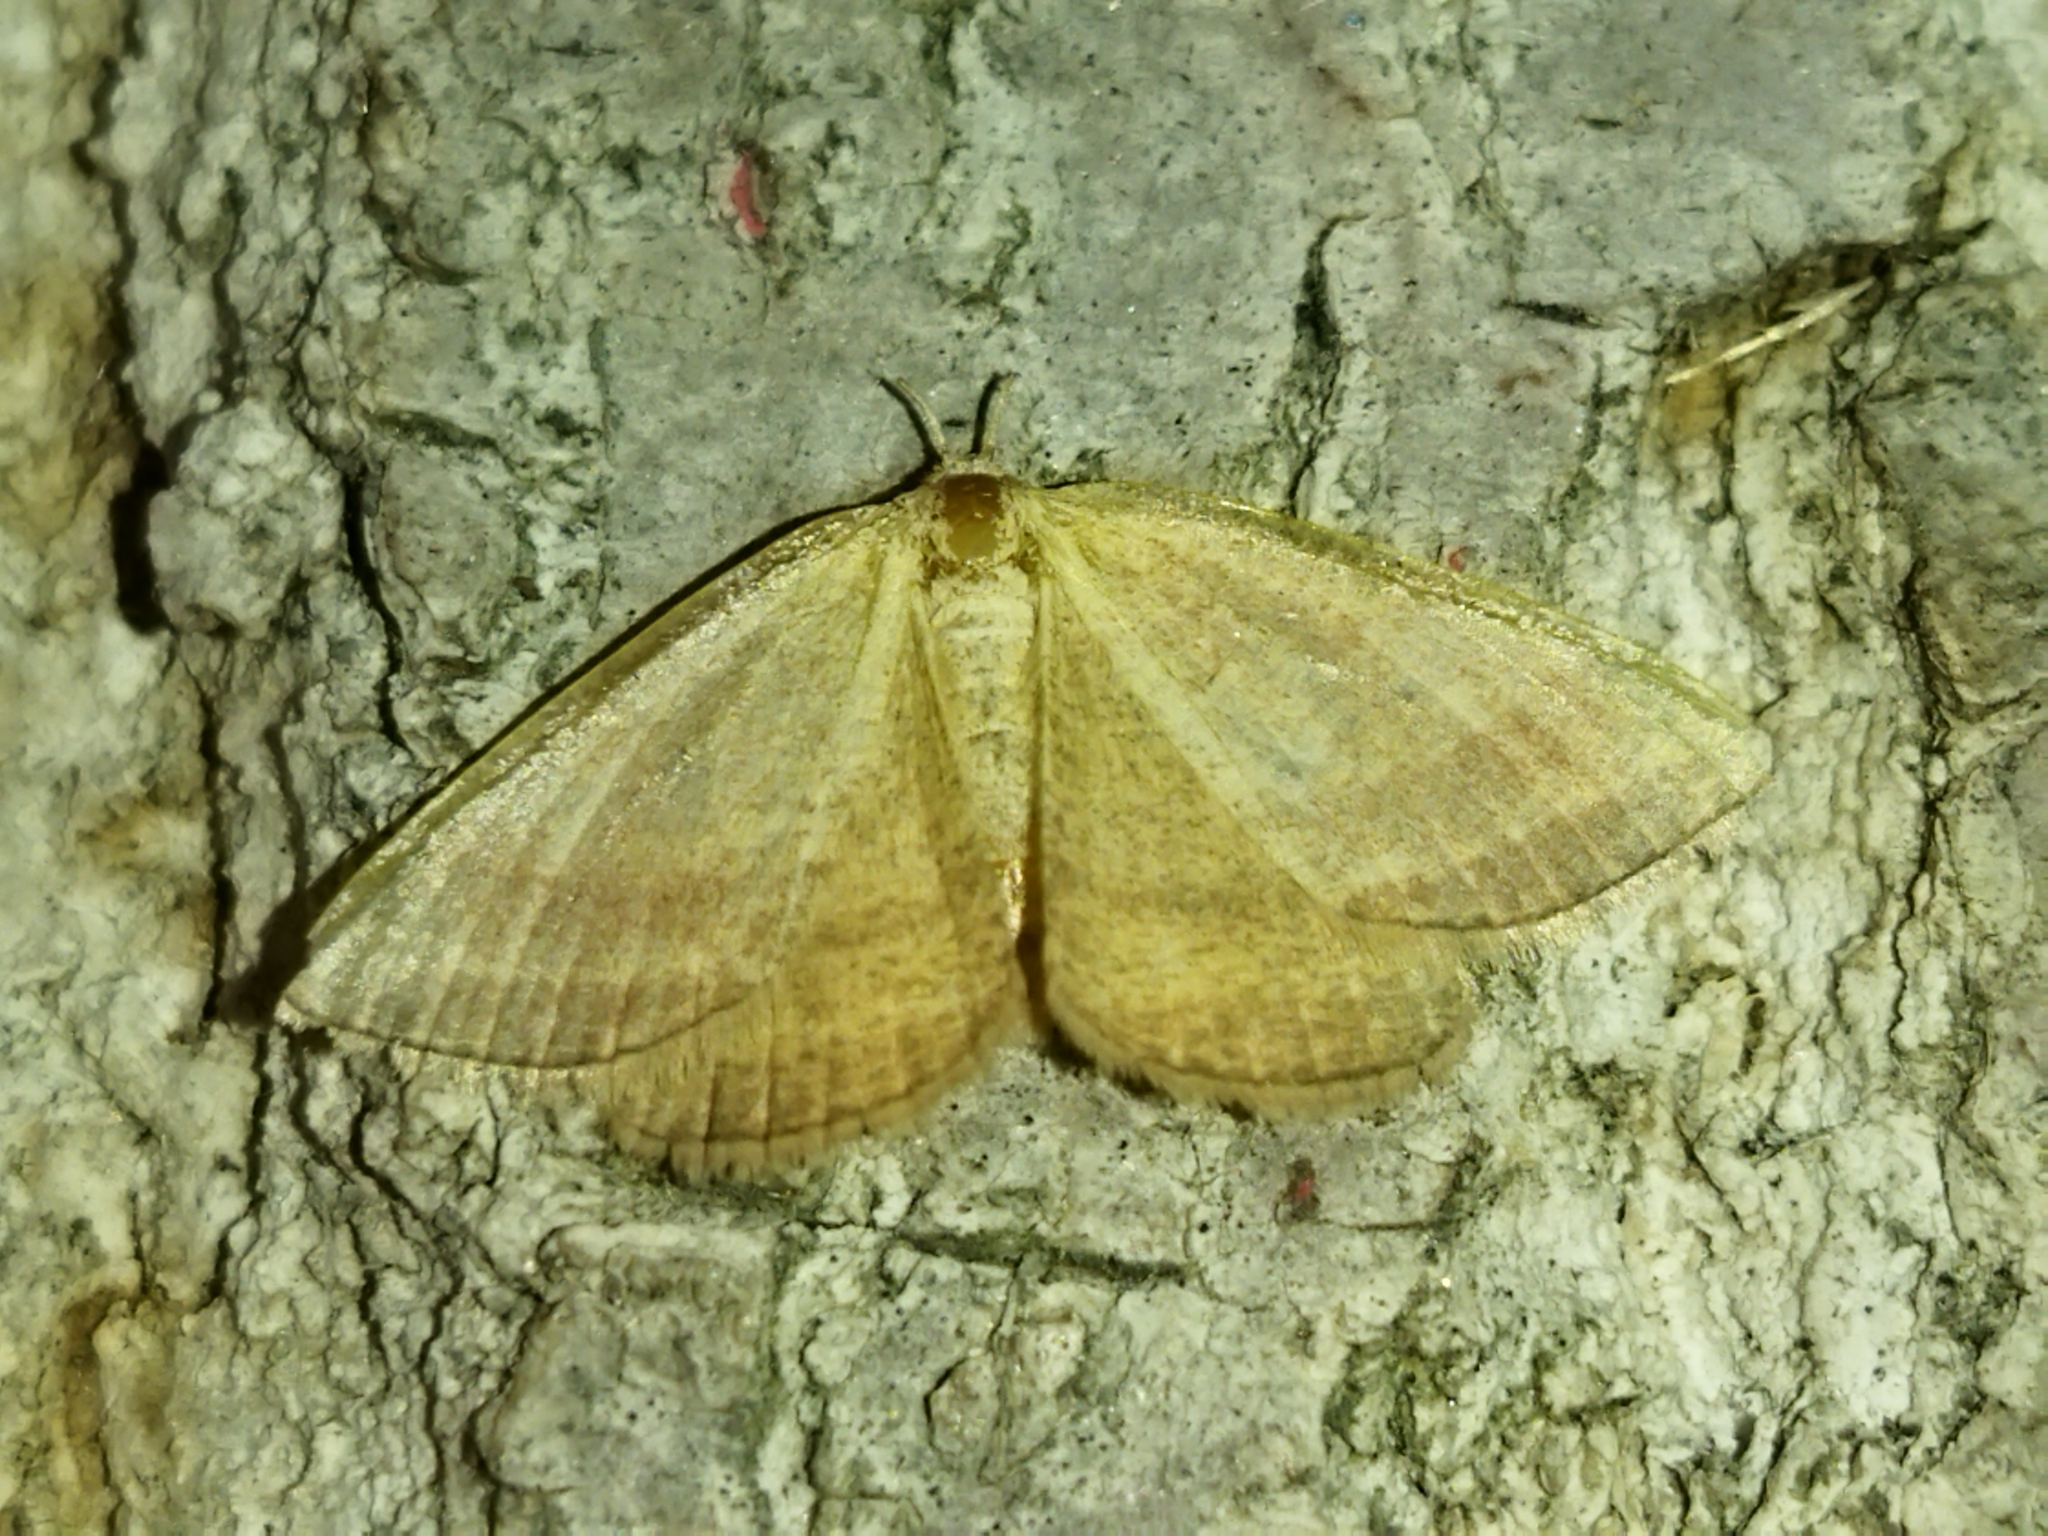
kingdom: Animalia
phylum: Arthropoda
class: Insecta
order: Lepidoptera
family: Geometridae
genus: Aplasta
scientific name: Aplasta ononaria
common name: Rest harrow
